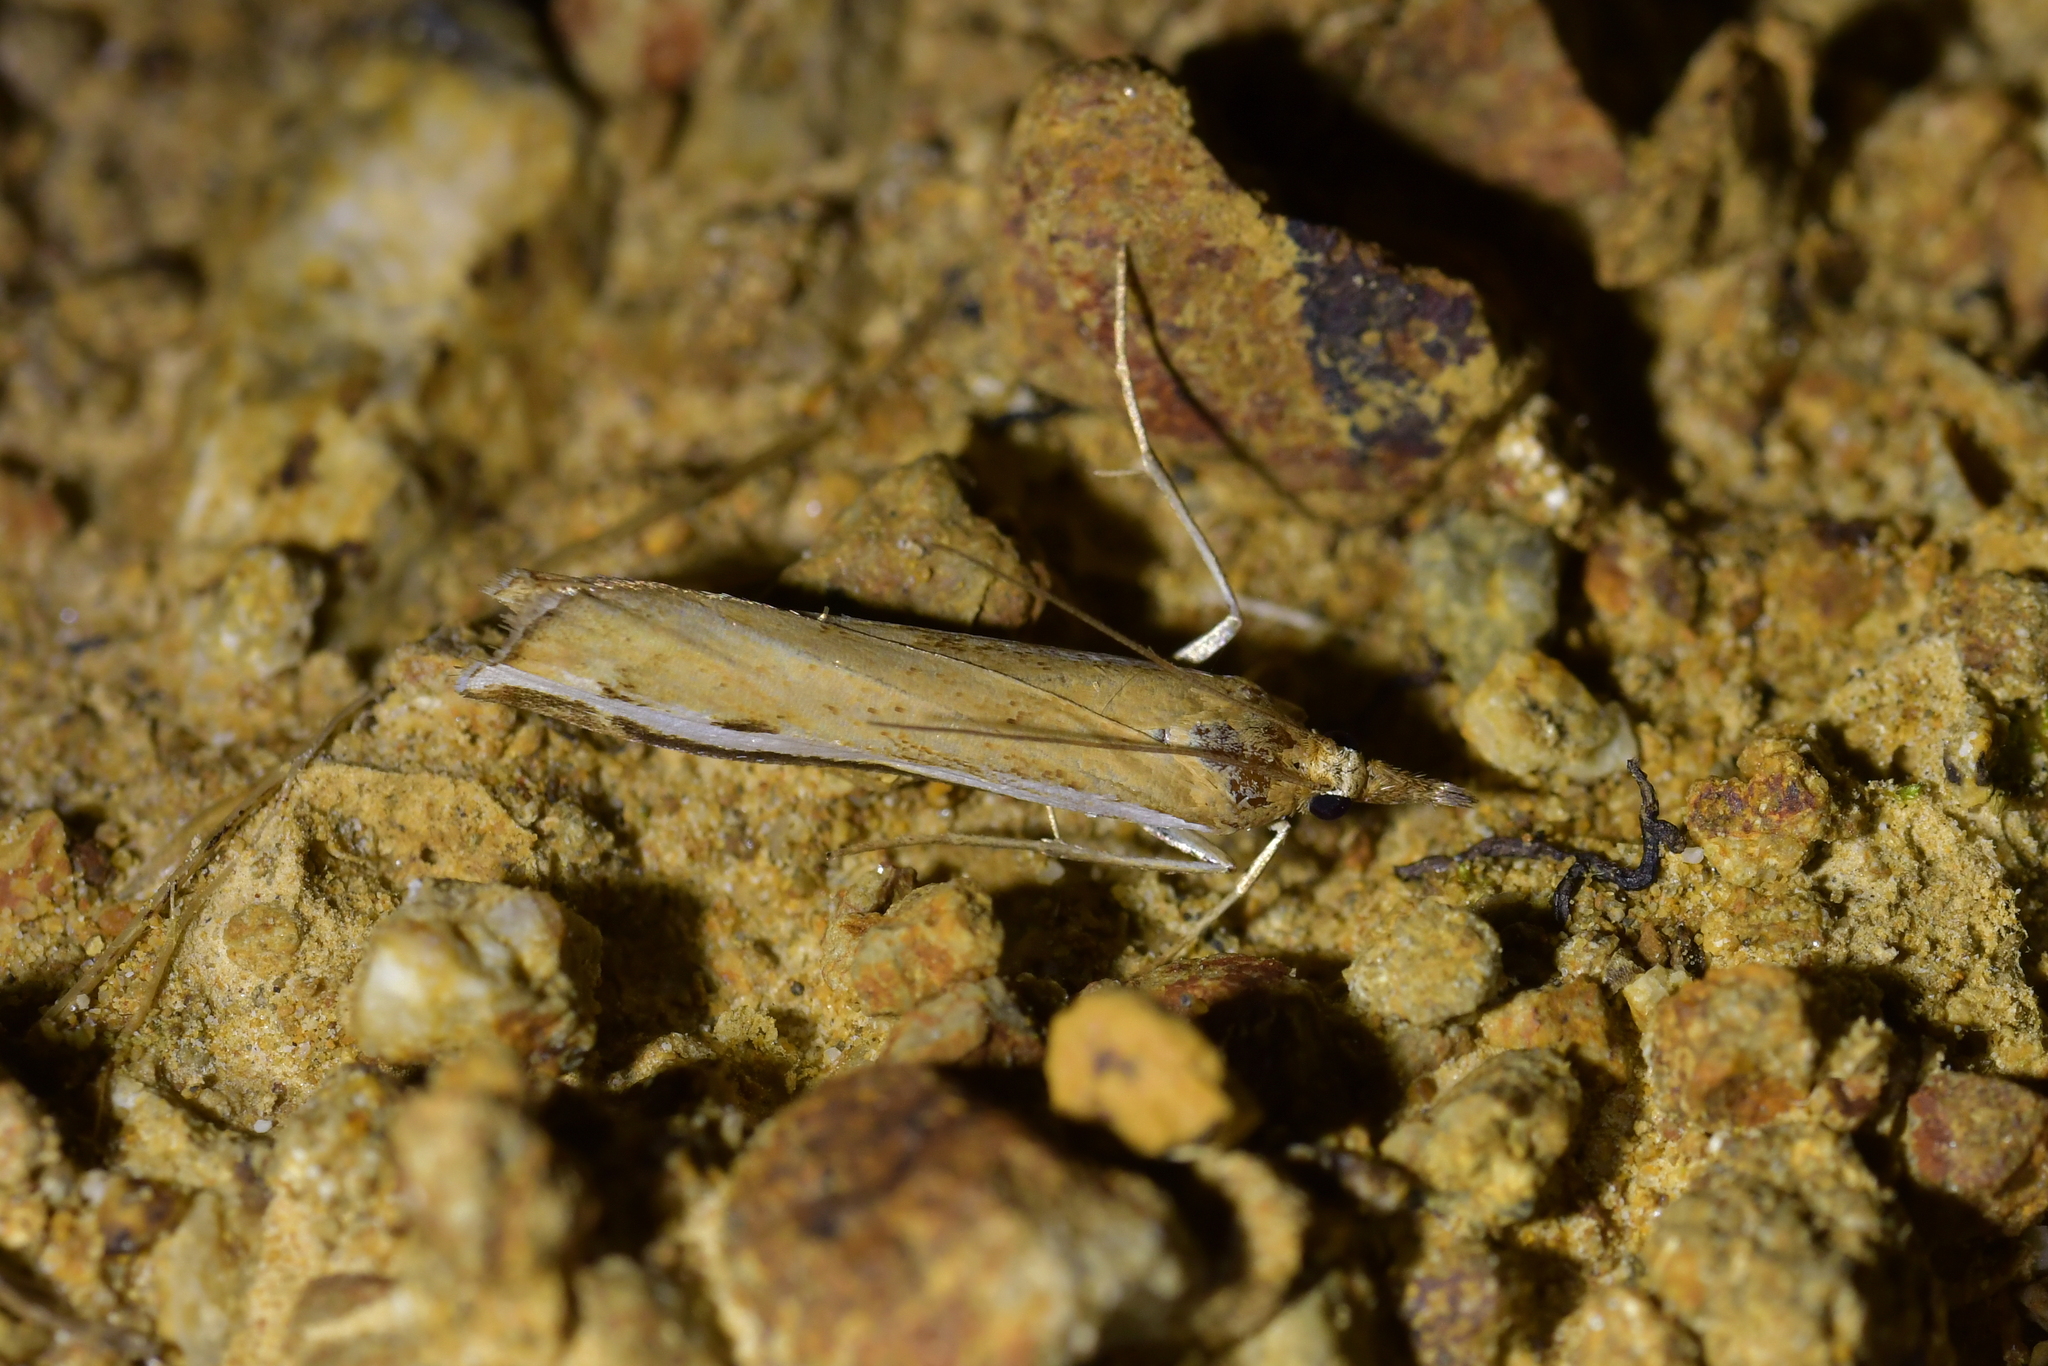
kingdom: Animalia
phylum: Arthropoda
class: Insecta
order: Lepidoptera
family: Crambidae
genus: Orocrambus
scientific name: Orocrambus flexuosellus
